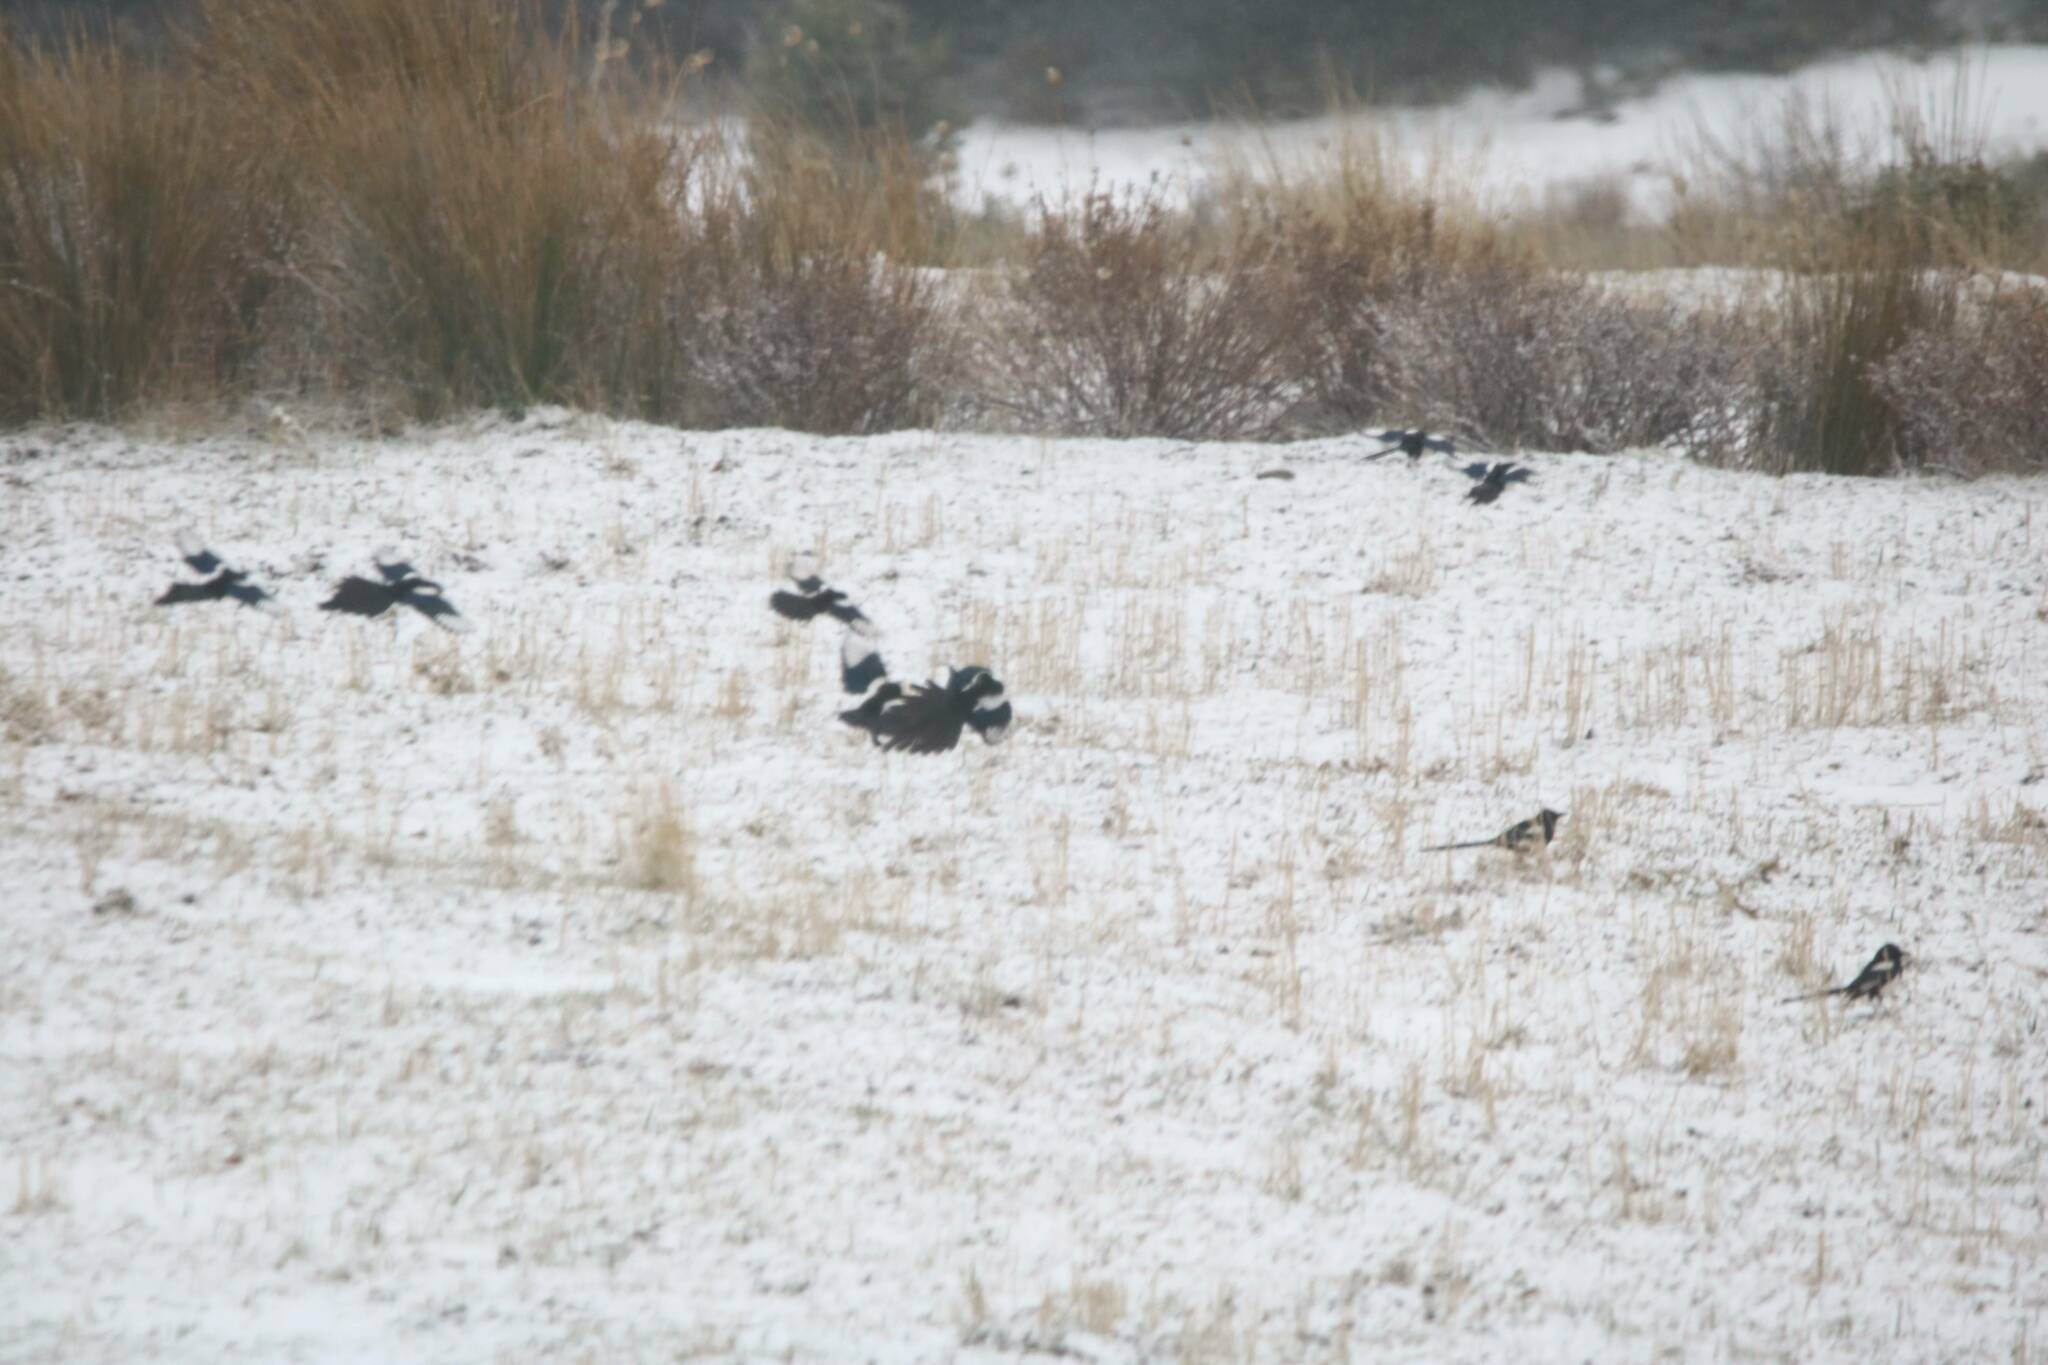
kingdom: Animalia
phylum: Chordata
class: Aves
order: Passeriformes
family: Corvidae
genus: Pica
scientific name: Pica mauritanica
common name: Maghreb magpie
